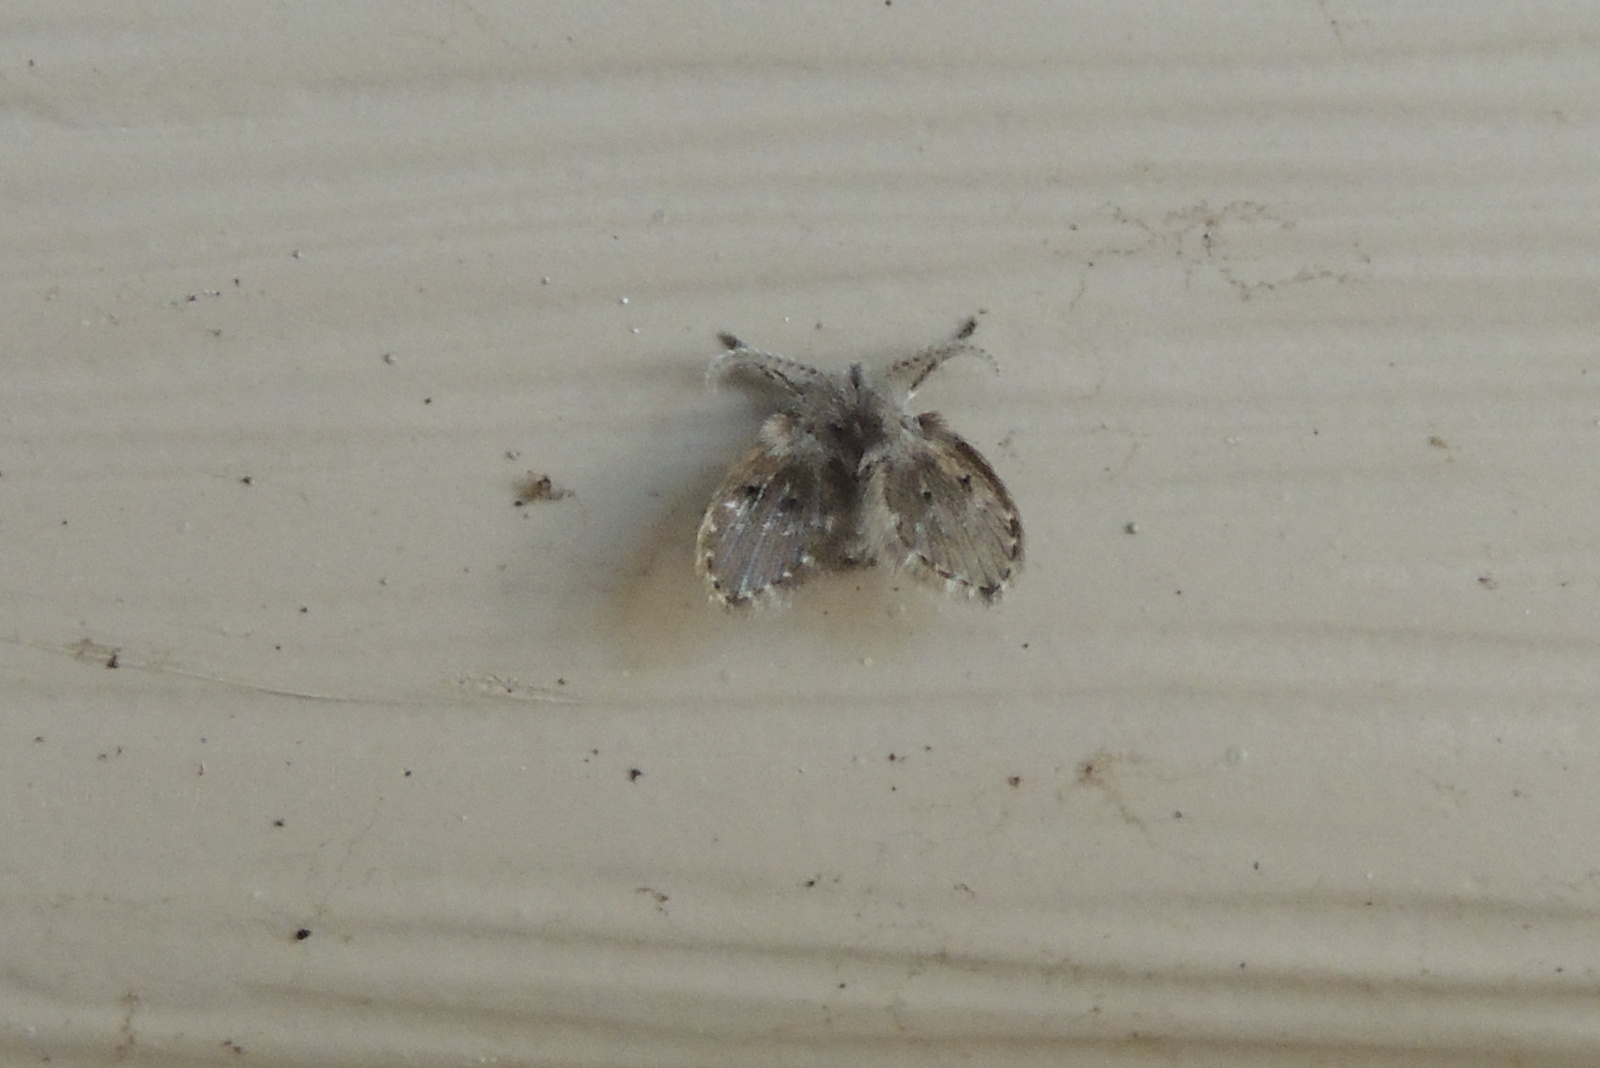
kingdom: Animalia
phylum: Arthropoda
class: Insecta
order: Diptera
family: Psychodidae
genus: Clogmia
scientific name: Clogmia albipunctatus
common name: White-spotted moth fly
